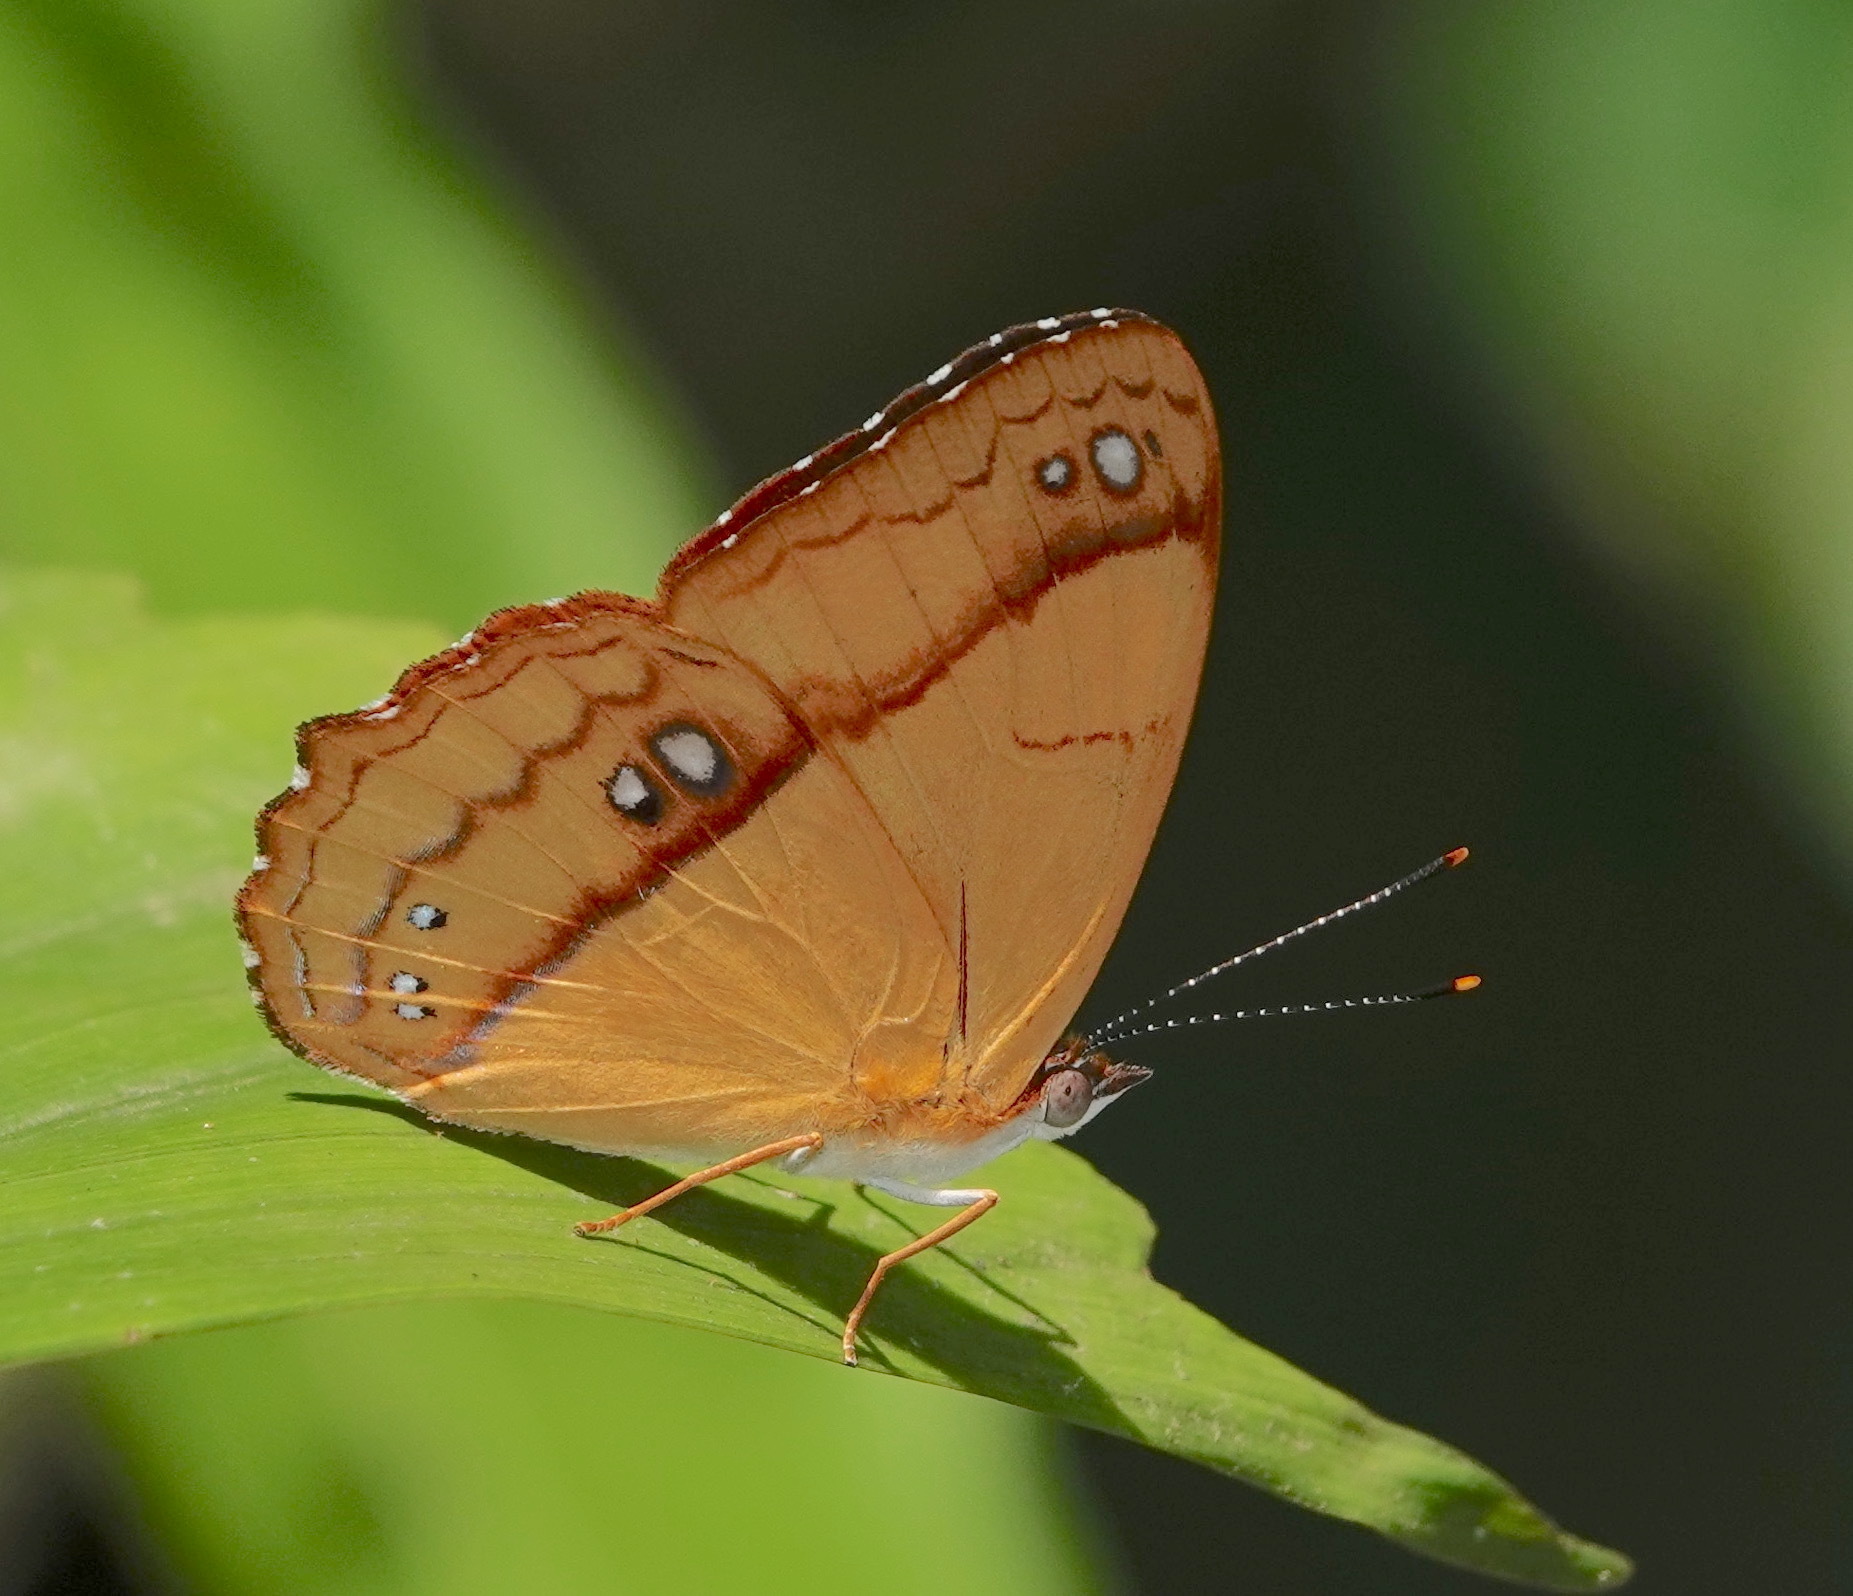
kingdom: Animalia
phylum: Arthropoda
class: Insecta
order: Lepidoptera
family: Nymphalidae
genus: Nica
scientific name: Nica flavilla
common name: Mandarin nica
